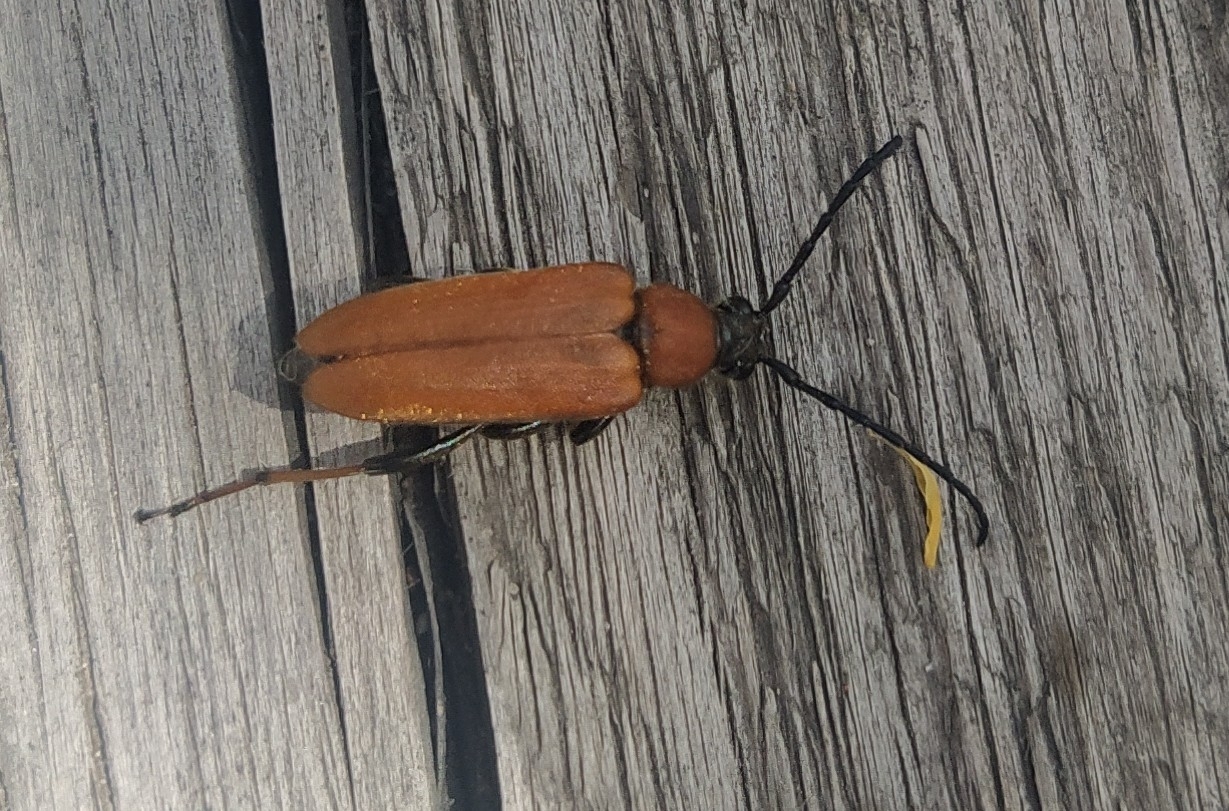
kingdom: Animalia
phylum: Arthropoda
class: Insecta
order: Coleoptera
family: Cerambycidae
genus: Stictoleptura
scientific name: Stictoleptura rubra
